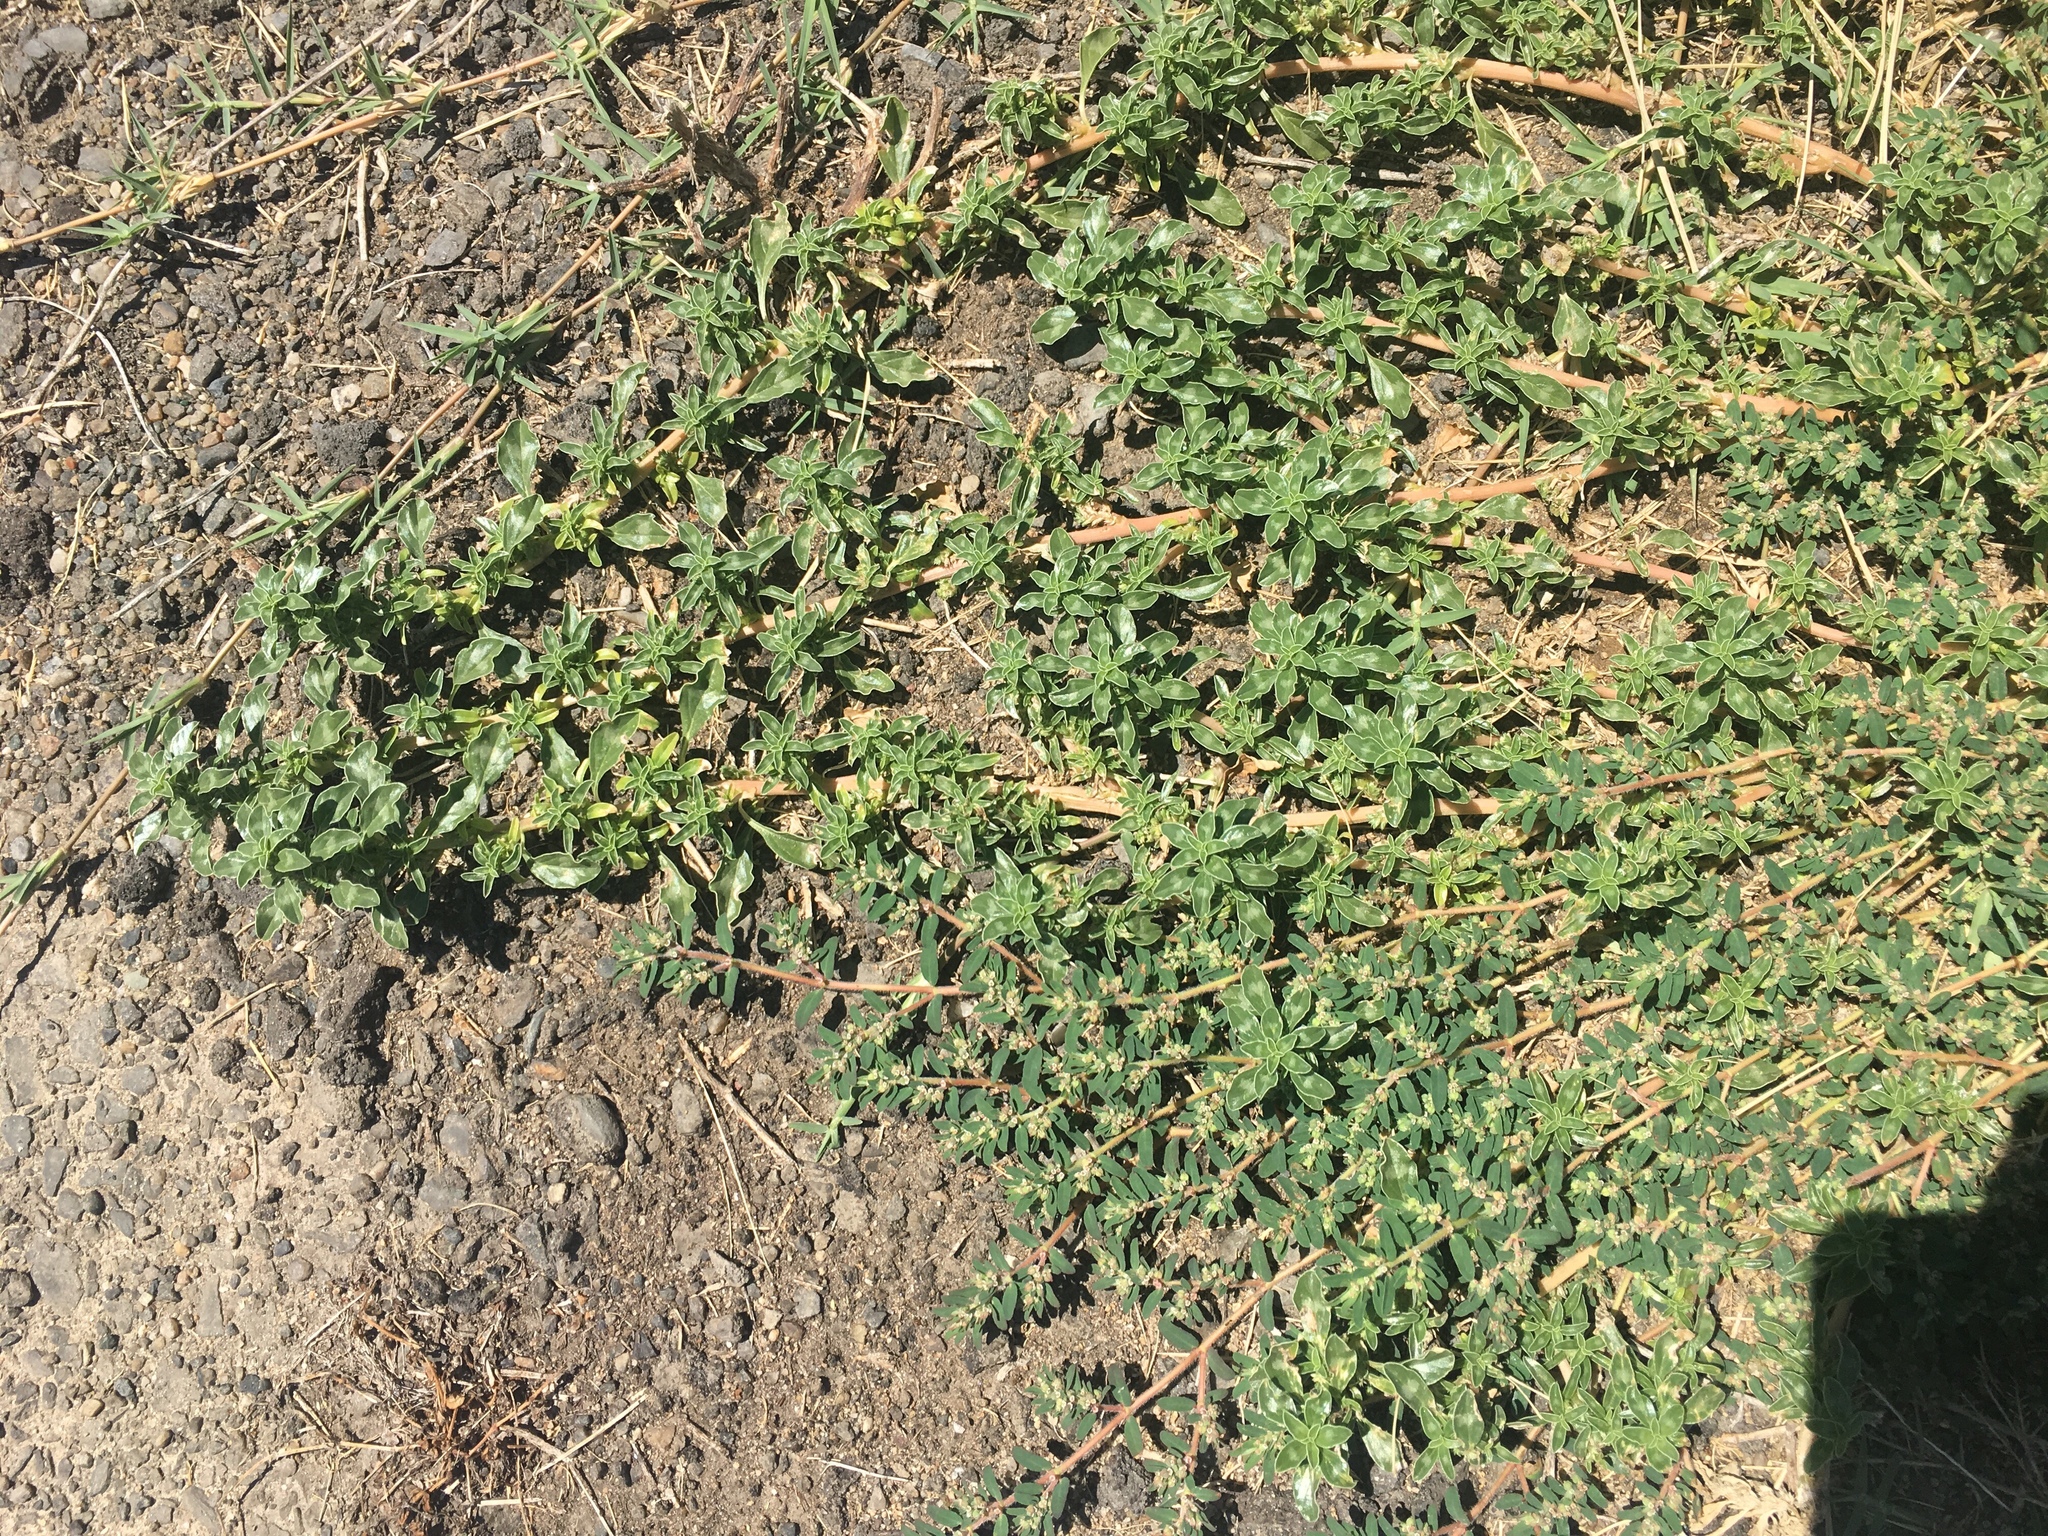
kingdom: Plantae
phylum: Tracheophyta
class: Magnoliopsida
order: Caryophyllales
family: Amaranthaceae
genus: Amaranthus
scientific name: Amaranthus blitoides
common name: Prostrate pigweed
